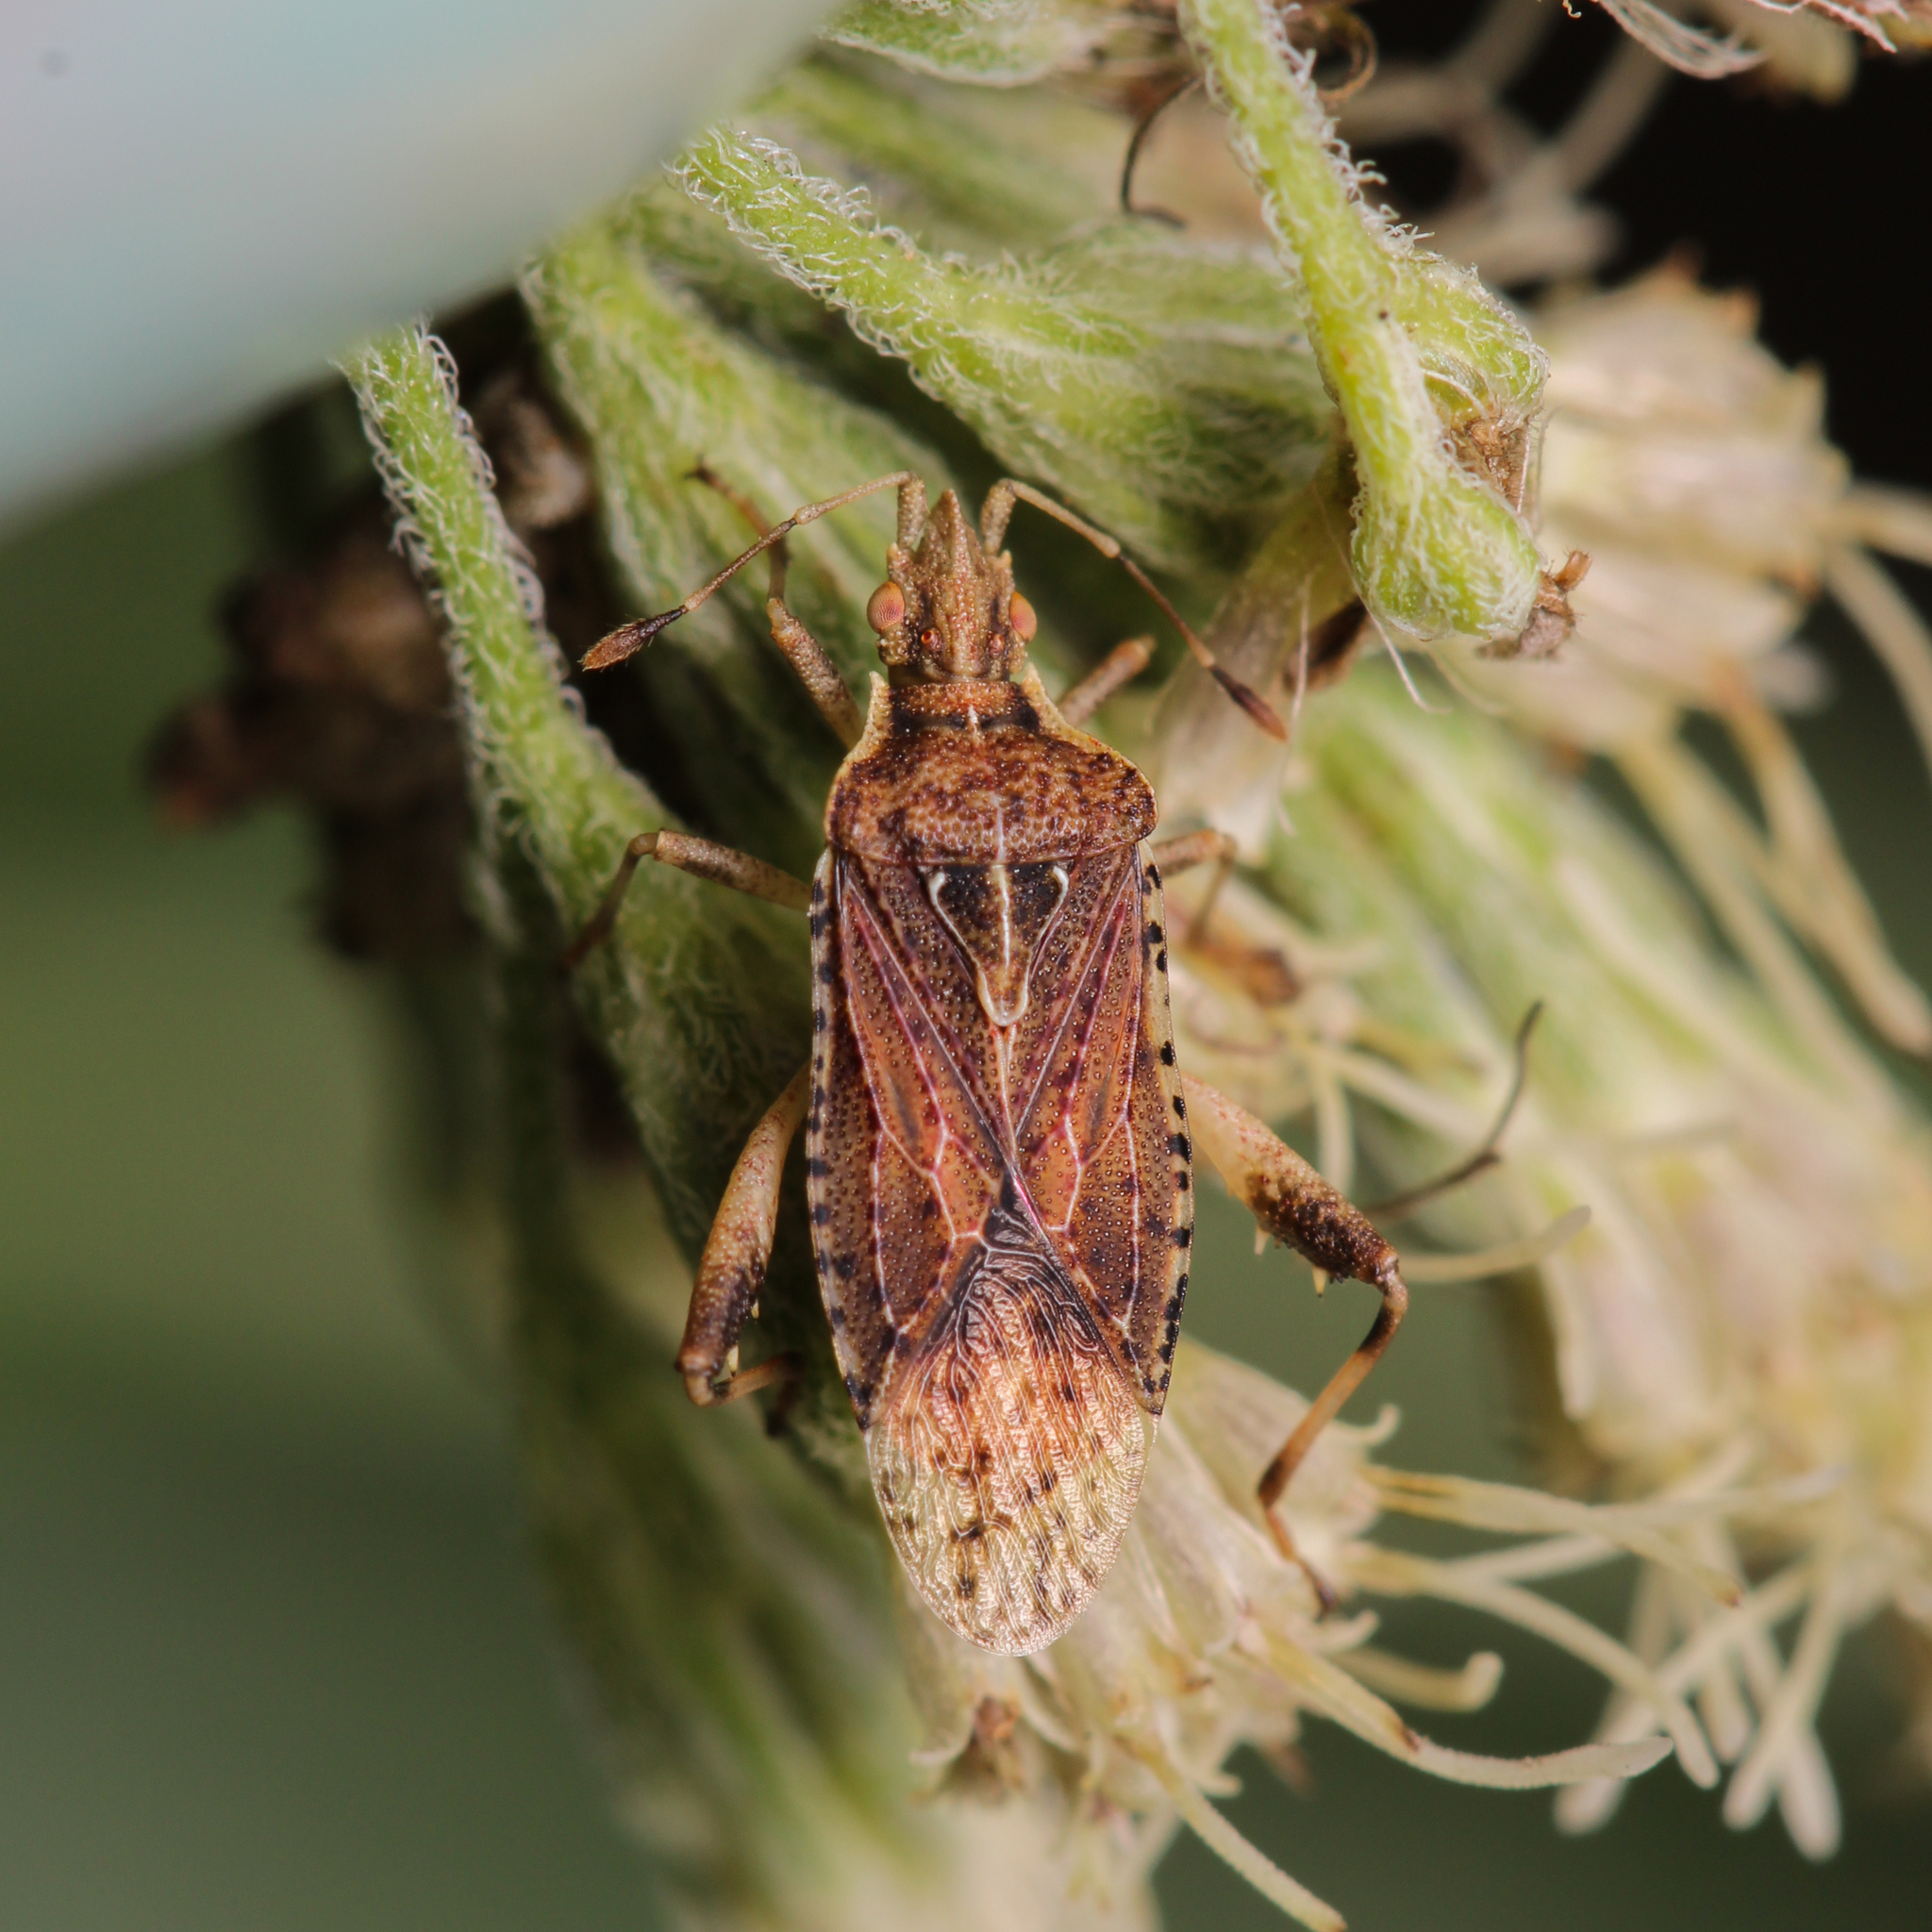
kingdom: Animalia
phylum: Arthropoda
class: Insecta
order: Hemiptera
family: Rhopalidae
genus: Harmostes
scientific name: Harmostes fraterculus
